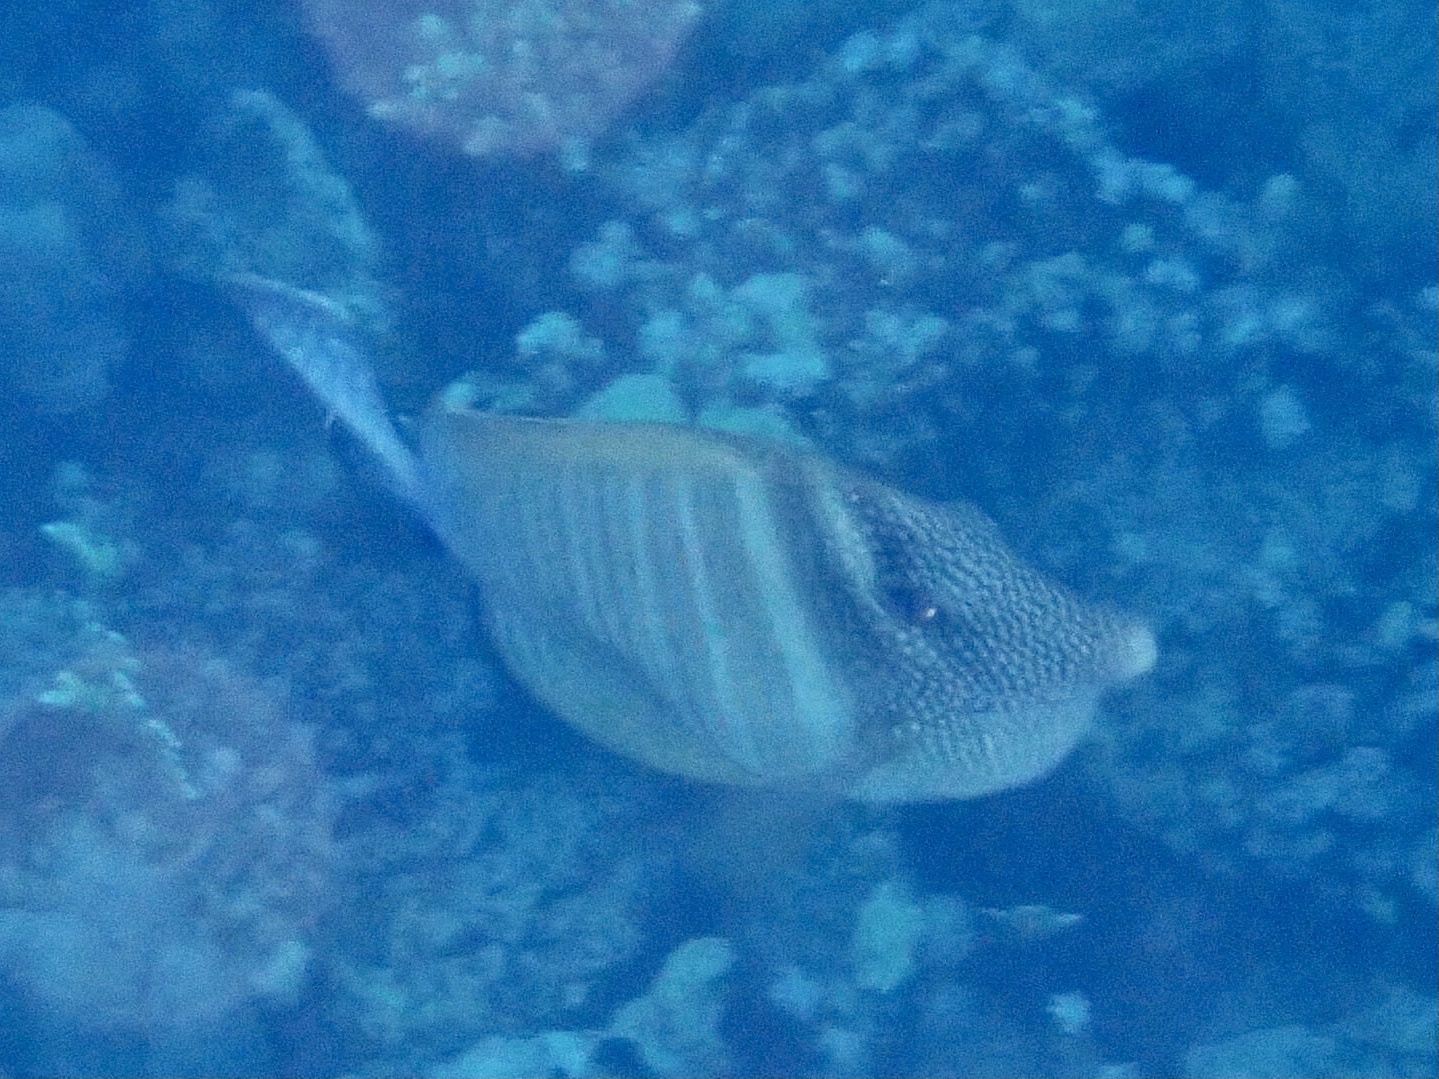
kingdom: Animalia
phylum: Chordata
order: Perciformes
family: Acanthuridae
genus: Zebrasoma
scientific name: Zebrasoma desjardinii
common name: Desjardin's sailfin tang
